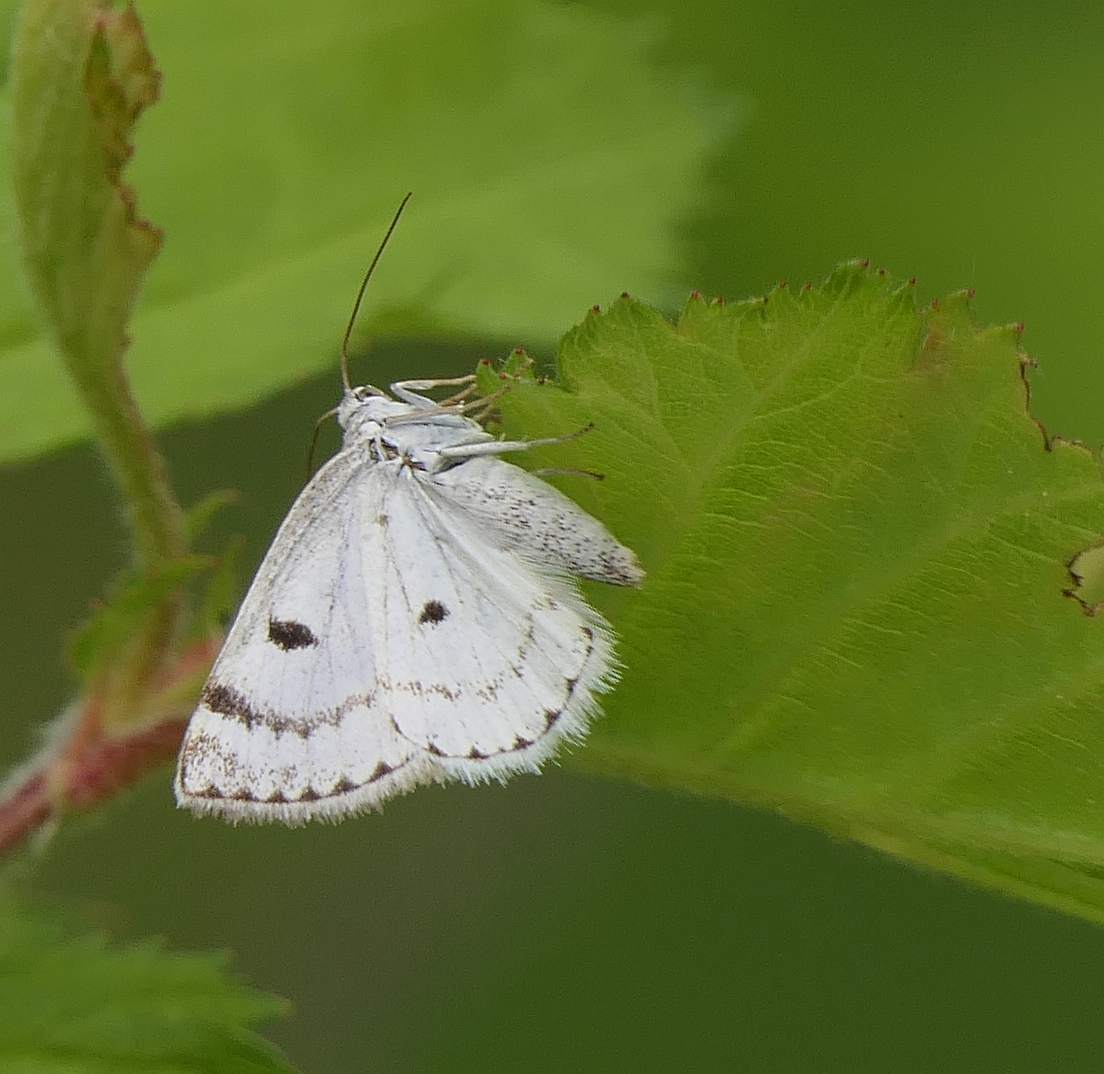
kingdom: Animalia
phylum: Arthropoda
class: Insecta
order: Lepidoptera
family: Geometridae
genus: Lomographa
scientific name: Lomographa semiclarata
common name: Bluish spring moth
